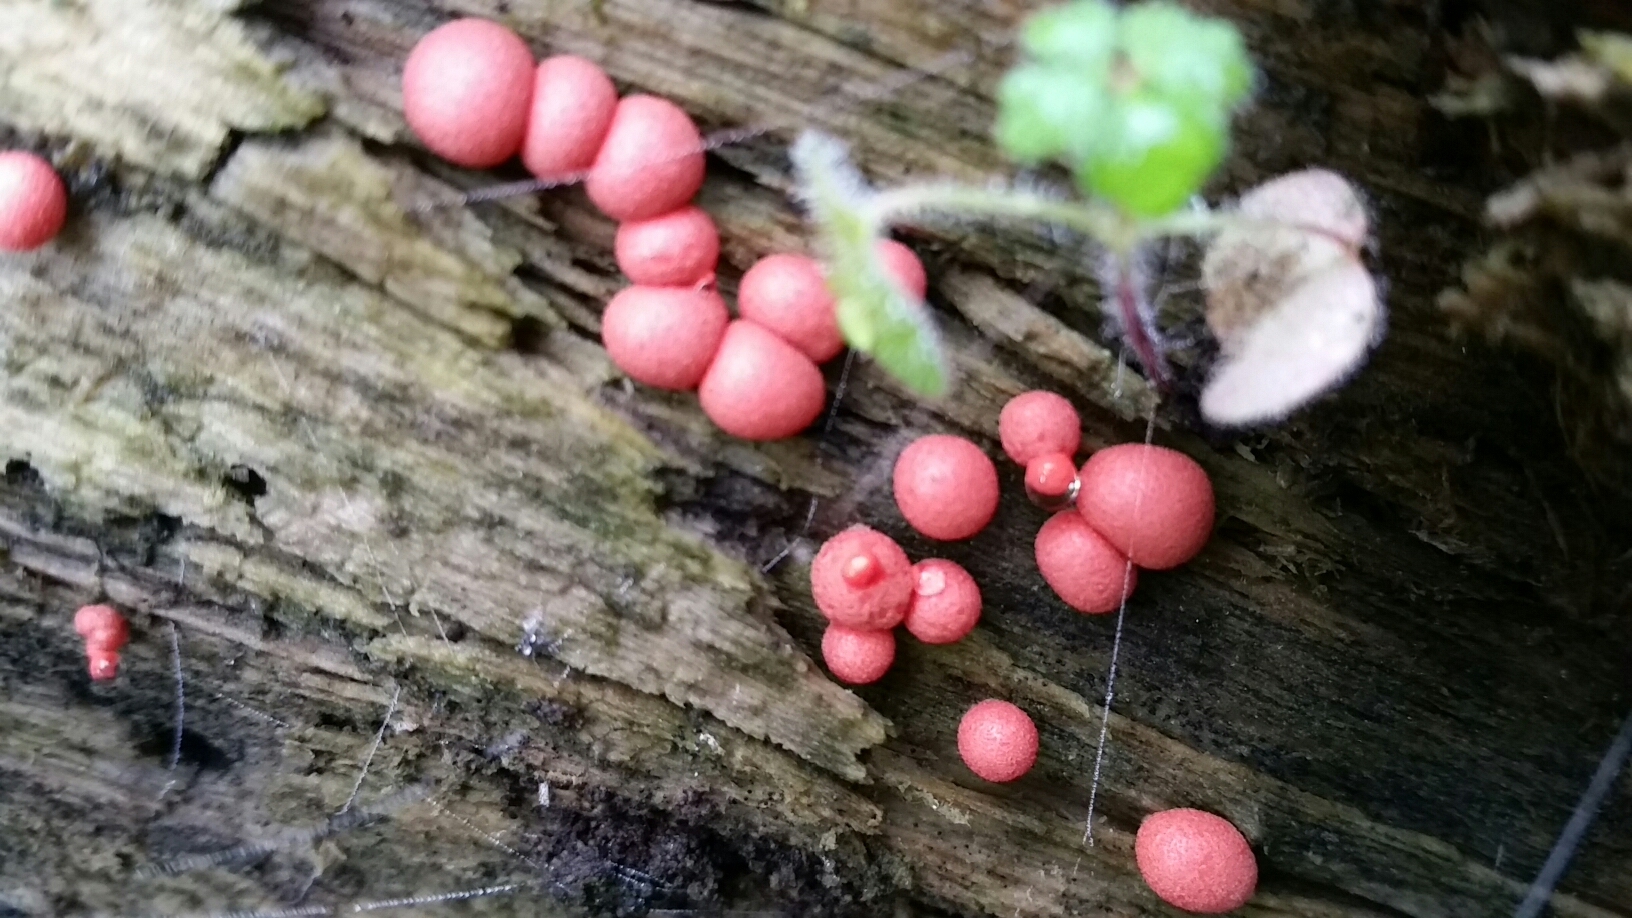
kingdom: Protozoa
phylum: Mycetozoa
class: Myxomycetes
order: Cribrariales
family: Tubiferaceae
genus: Lycogala
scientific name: Lycogala epidendrum
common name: Wolf's milk
